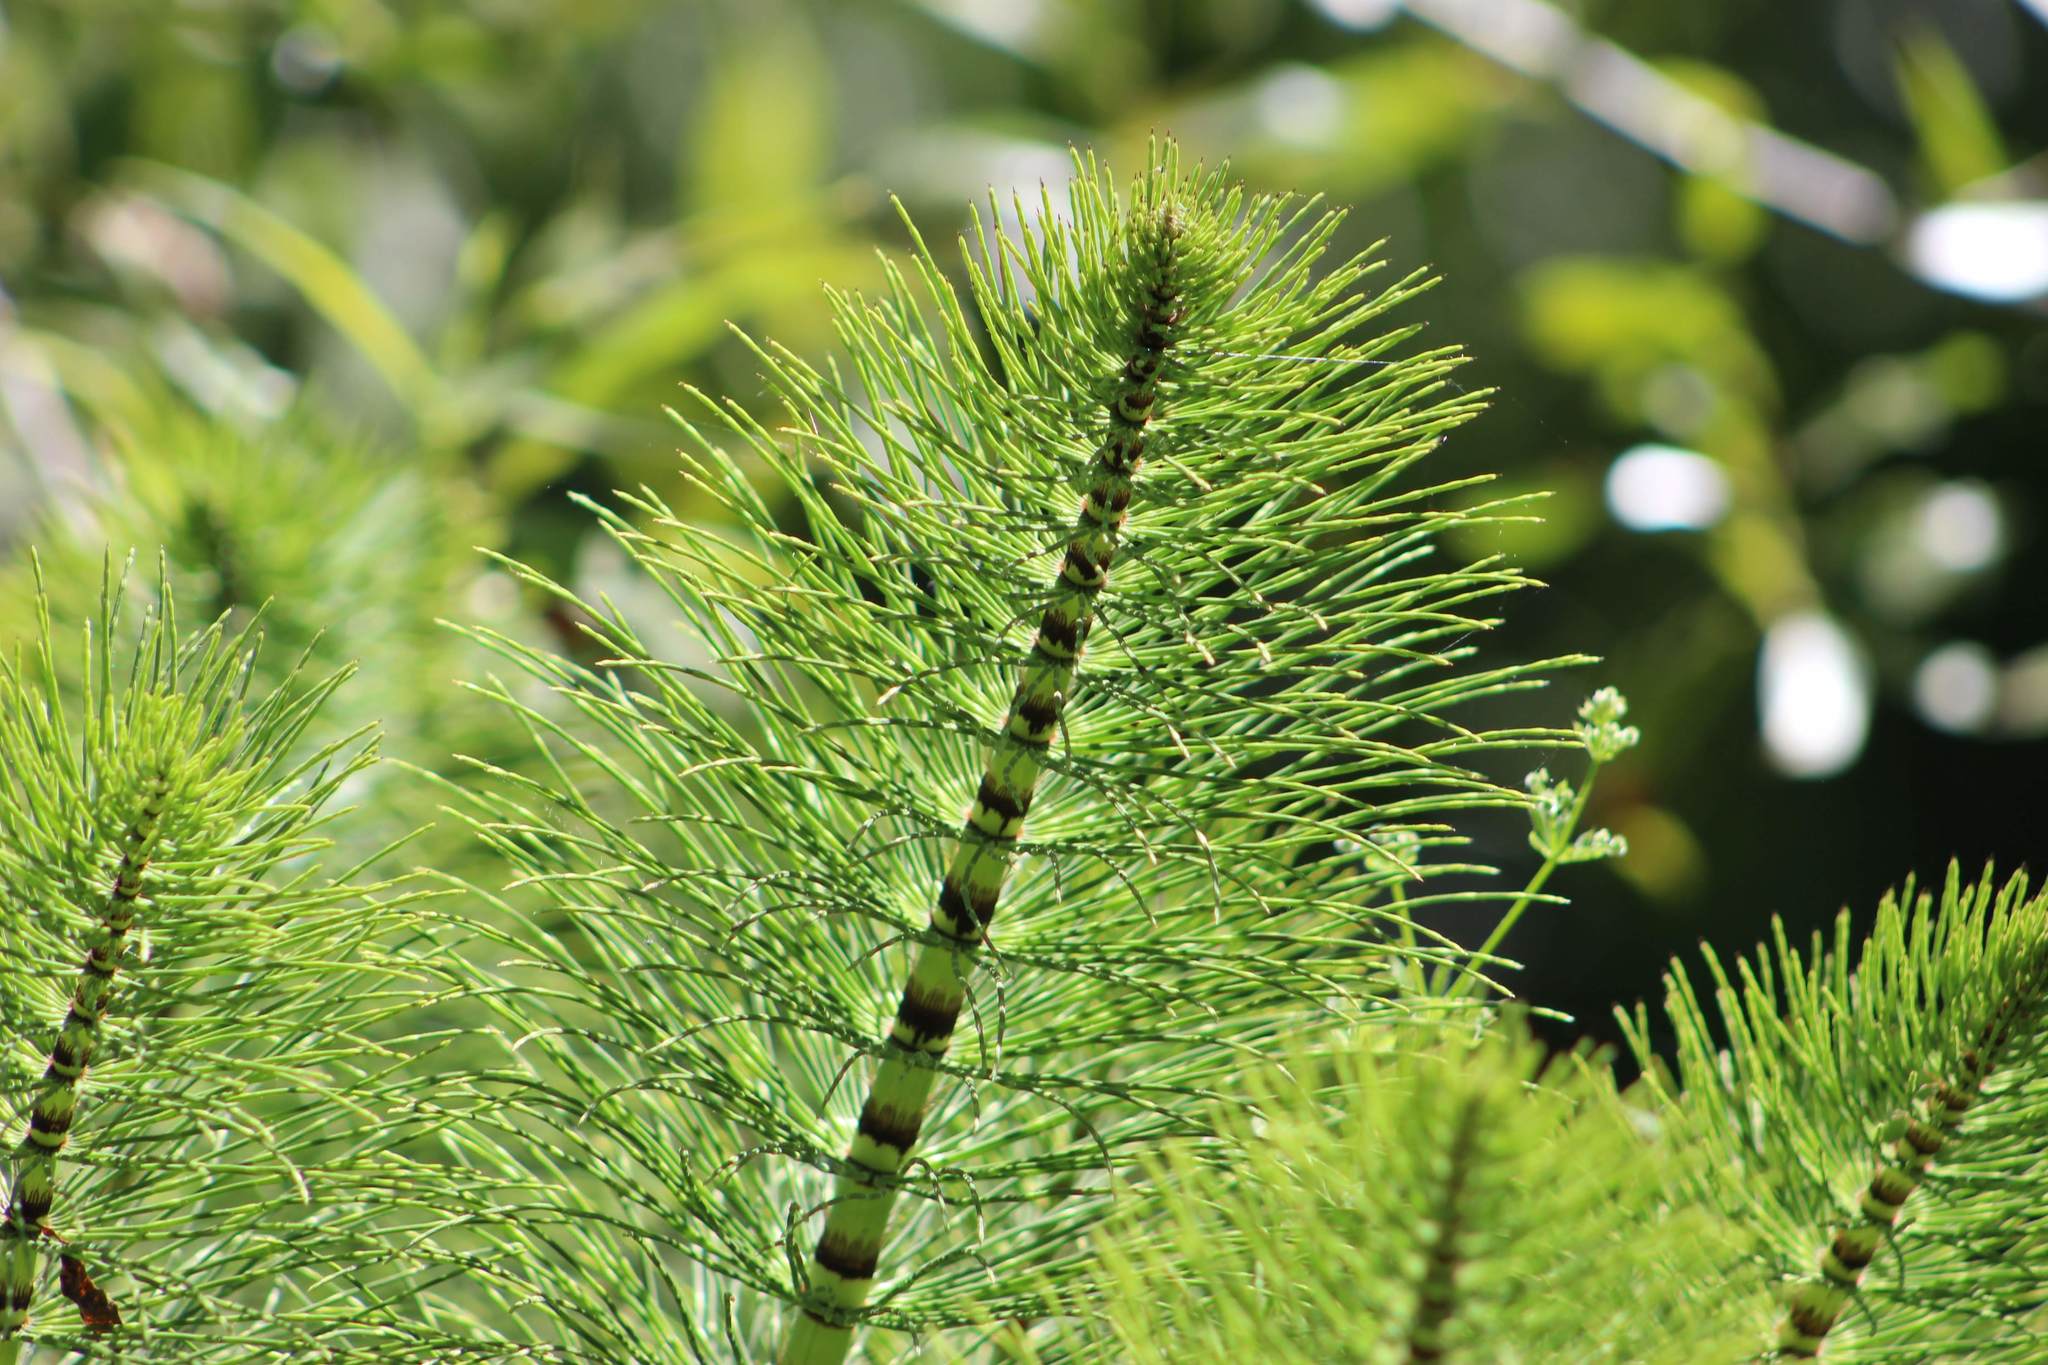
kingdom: Plantae
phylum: Tracheophyta
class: Polypodiopsida
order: Equisetales
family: Equisetaceae
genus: Equisetum
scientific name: Equisetum telmateia
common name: Great horsetail
